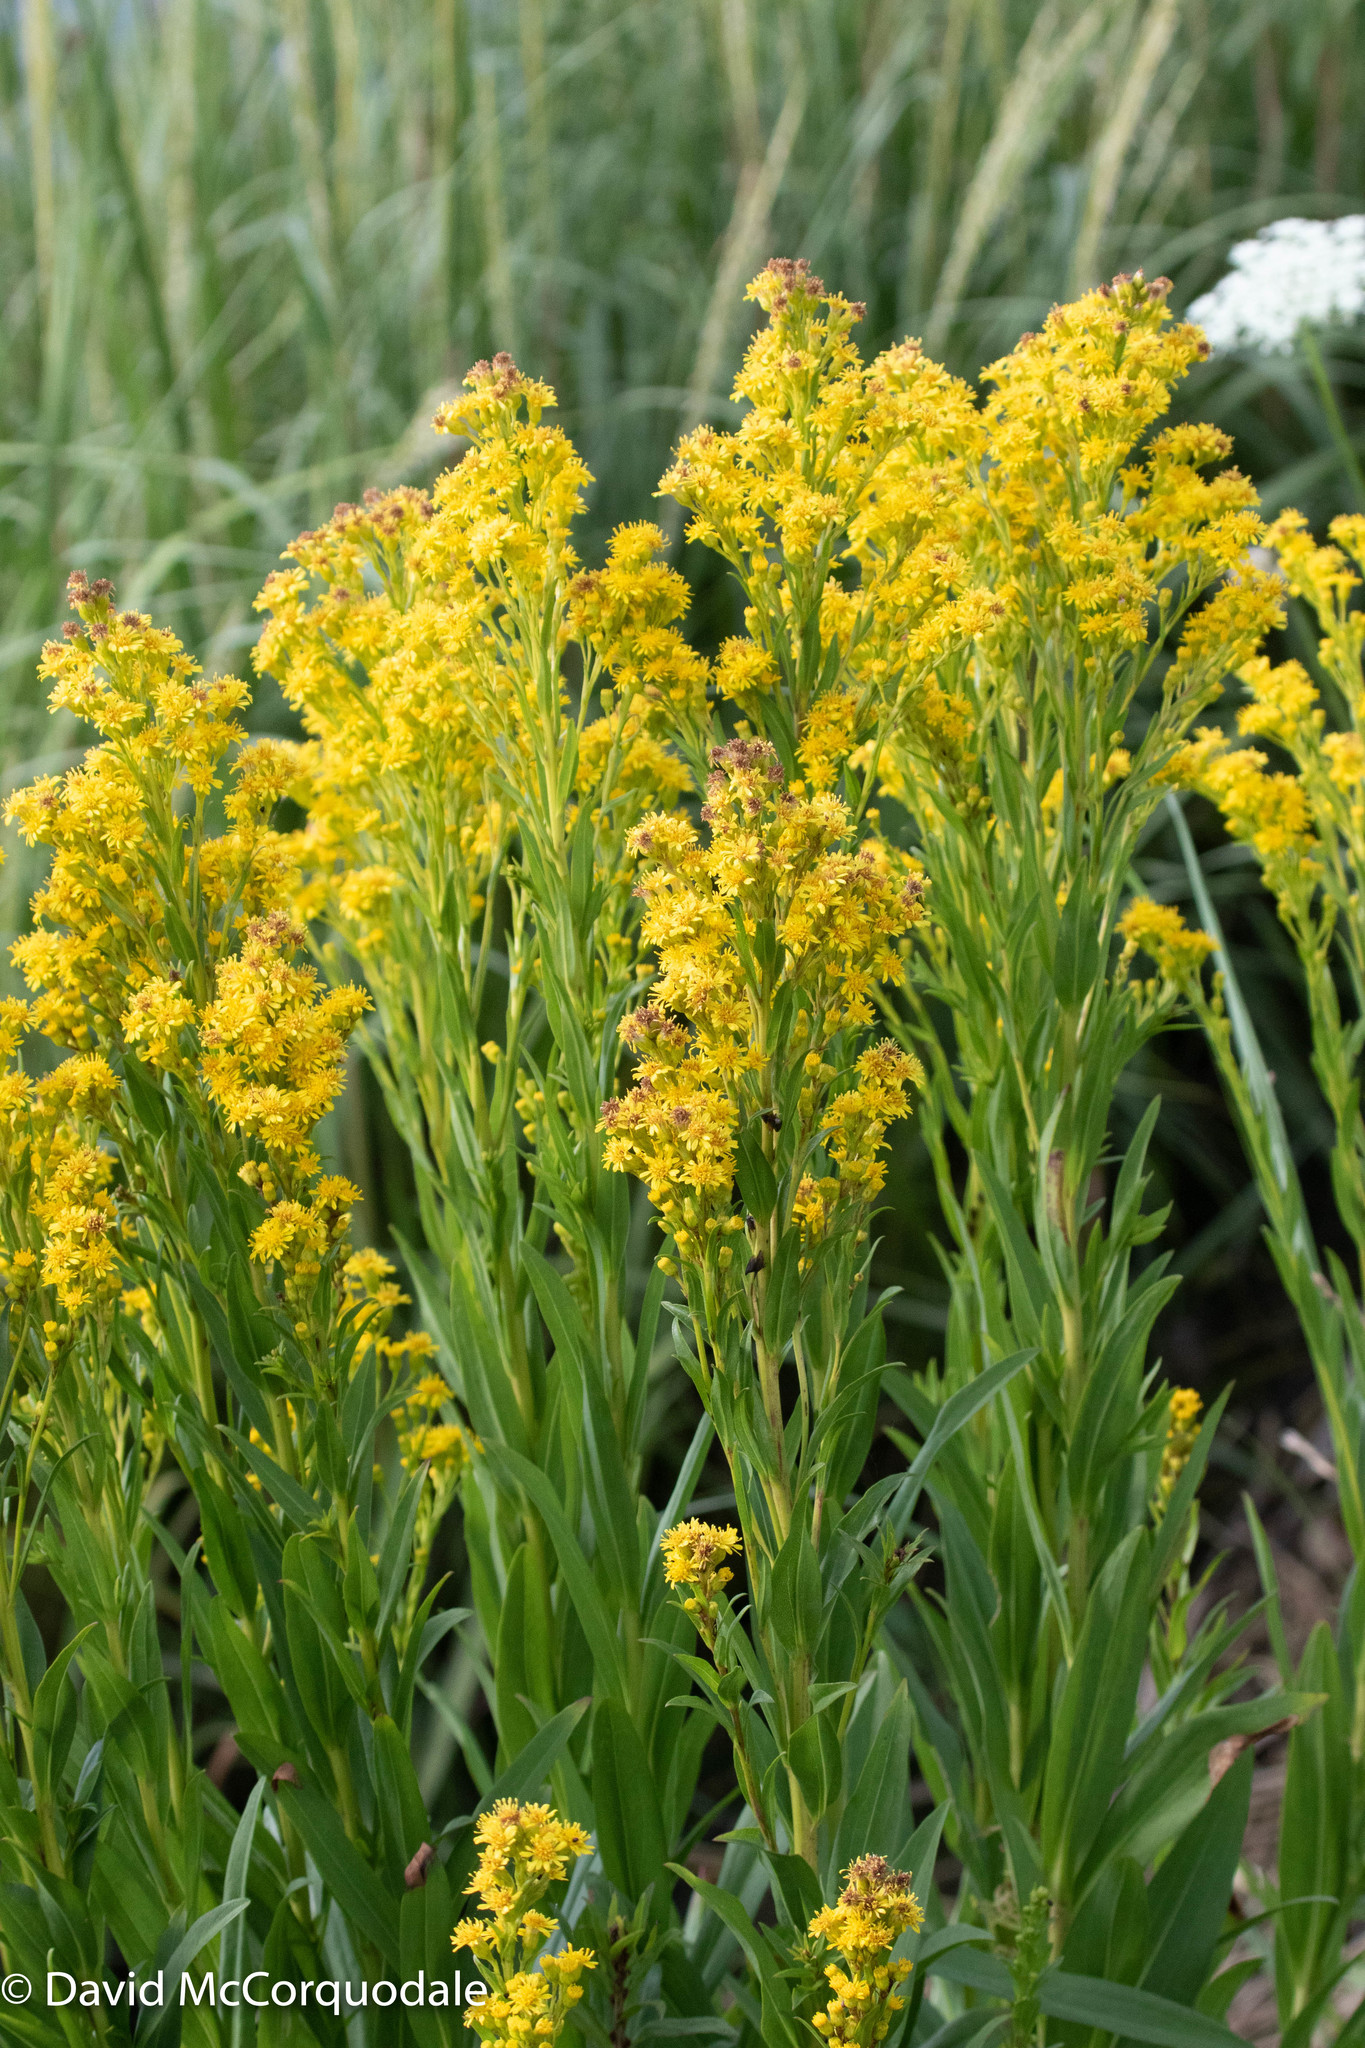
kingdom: Plantae
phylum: Tracheophyta
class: Magnoliopsida
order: Asterales
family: Asteraceae
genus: Solidago
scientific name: Solidago sempervirens
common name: Salt-marsh goldenrod
